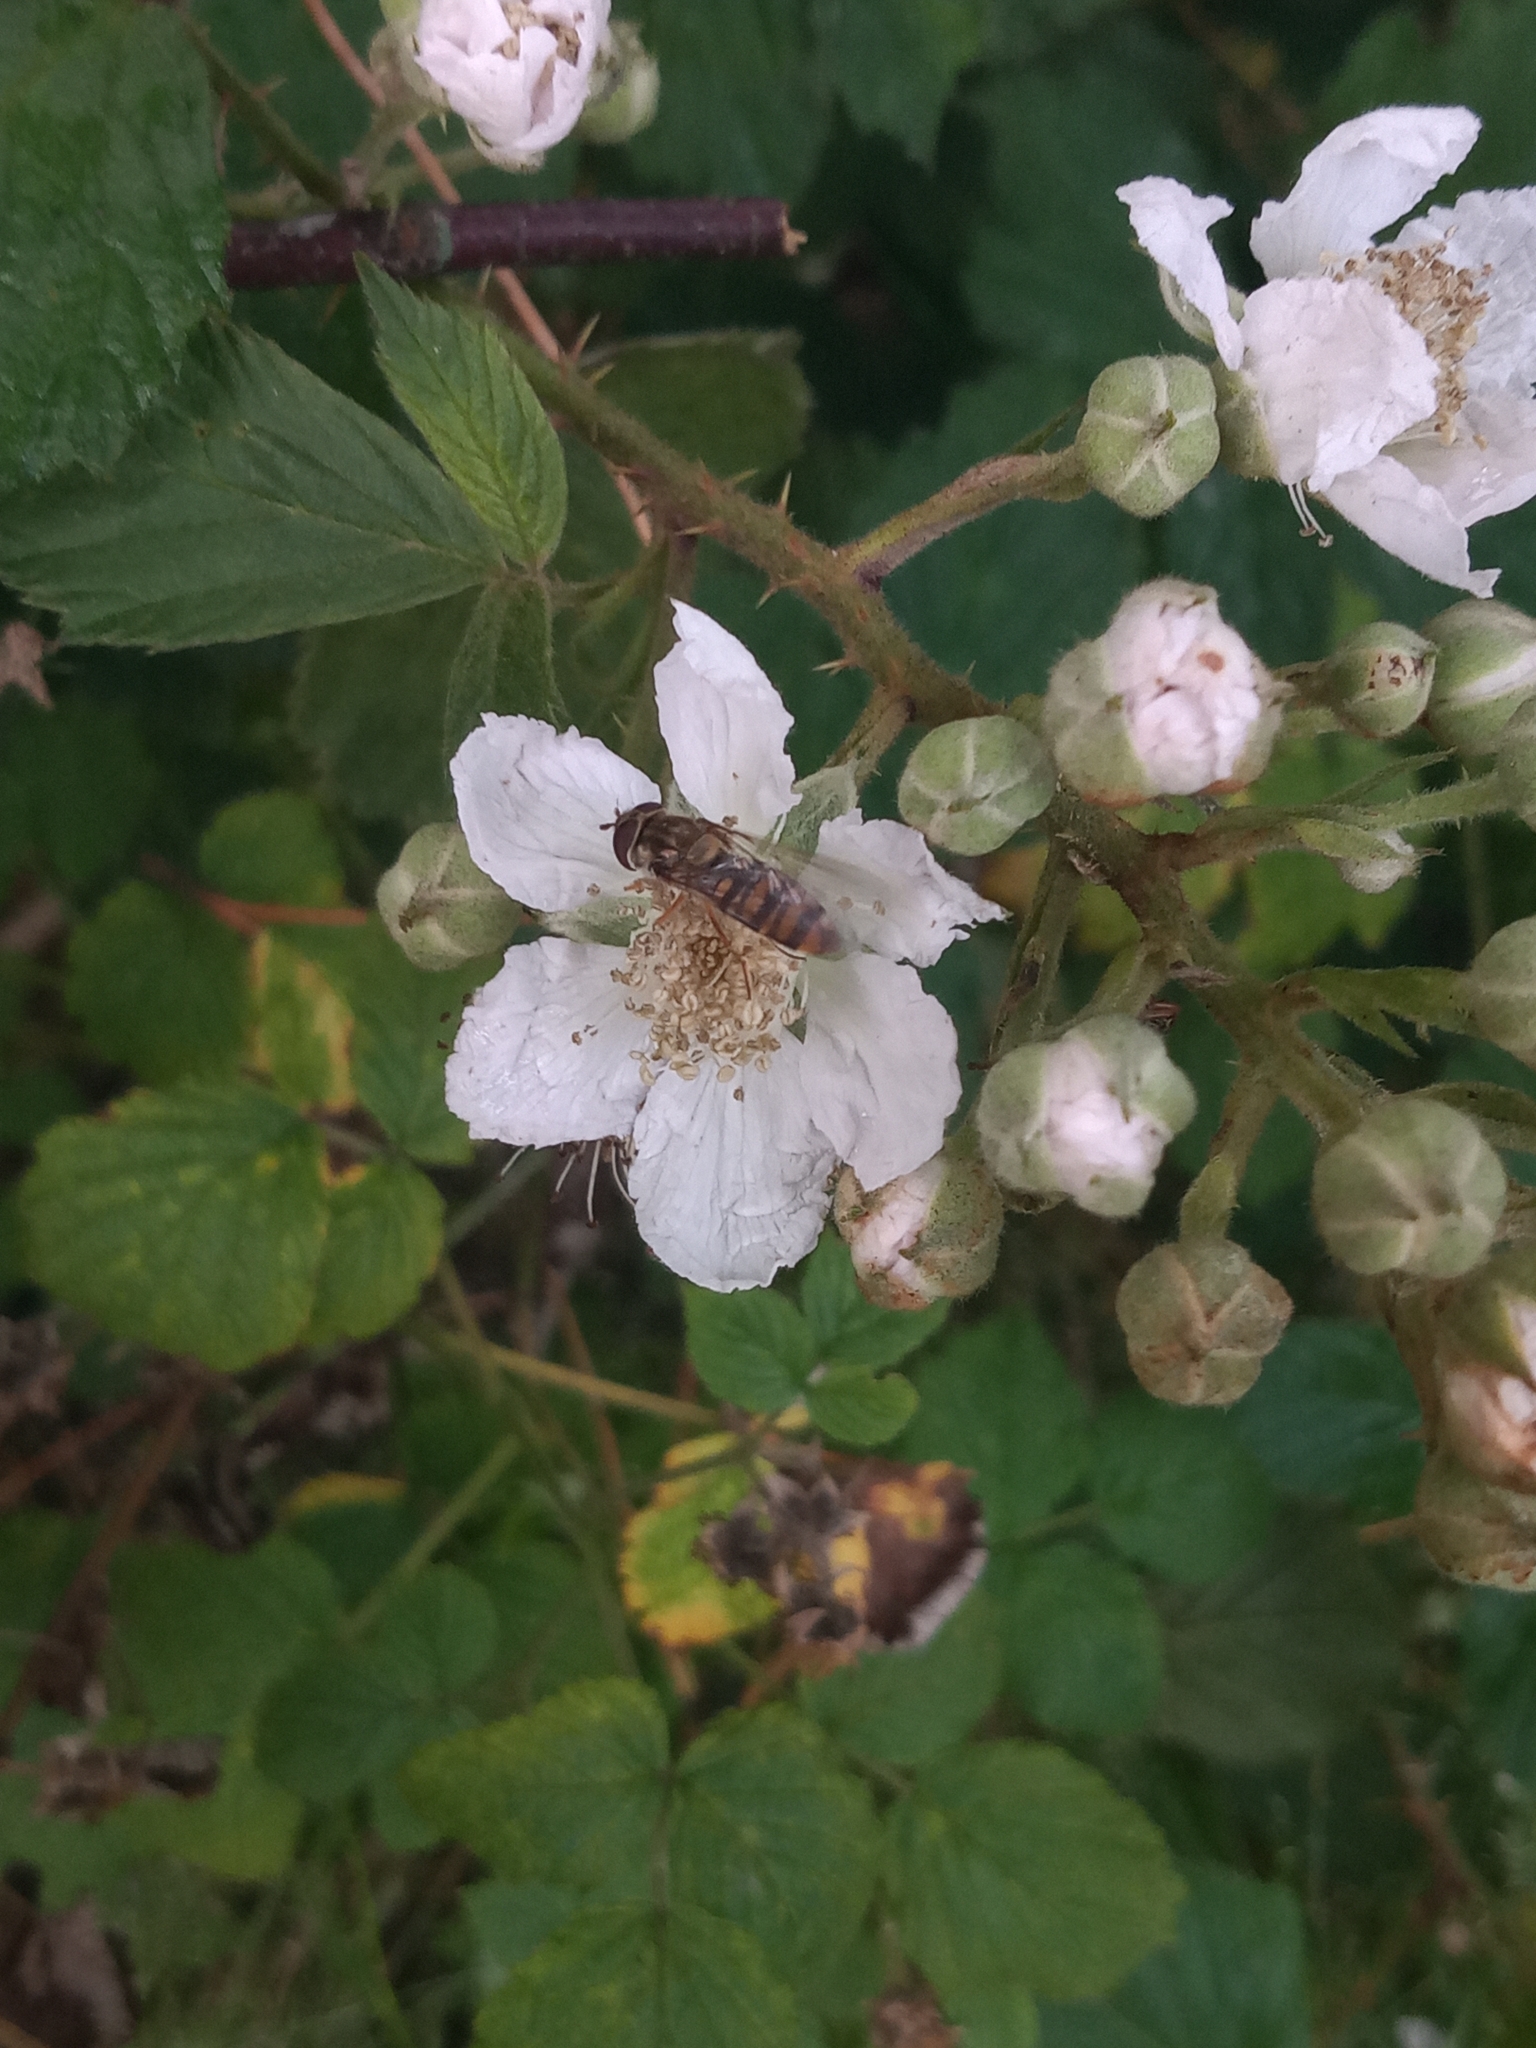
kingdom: Animalia
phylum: Arthropoda
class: Insecta
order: Diptera
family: Syrphidae
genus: Episyrphus
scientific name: Episyrphus balteatus
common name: Marmalade hoverfly
